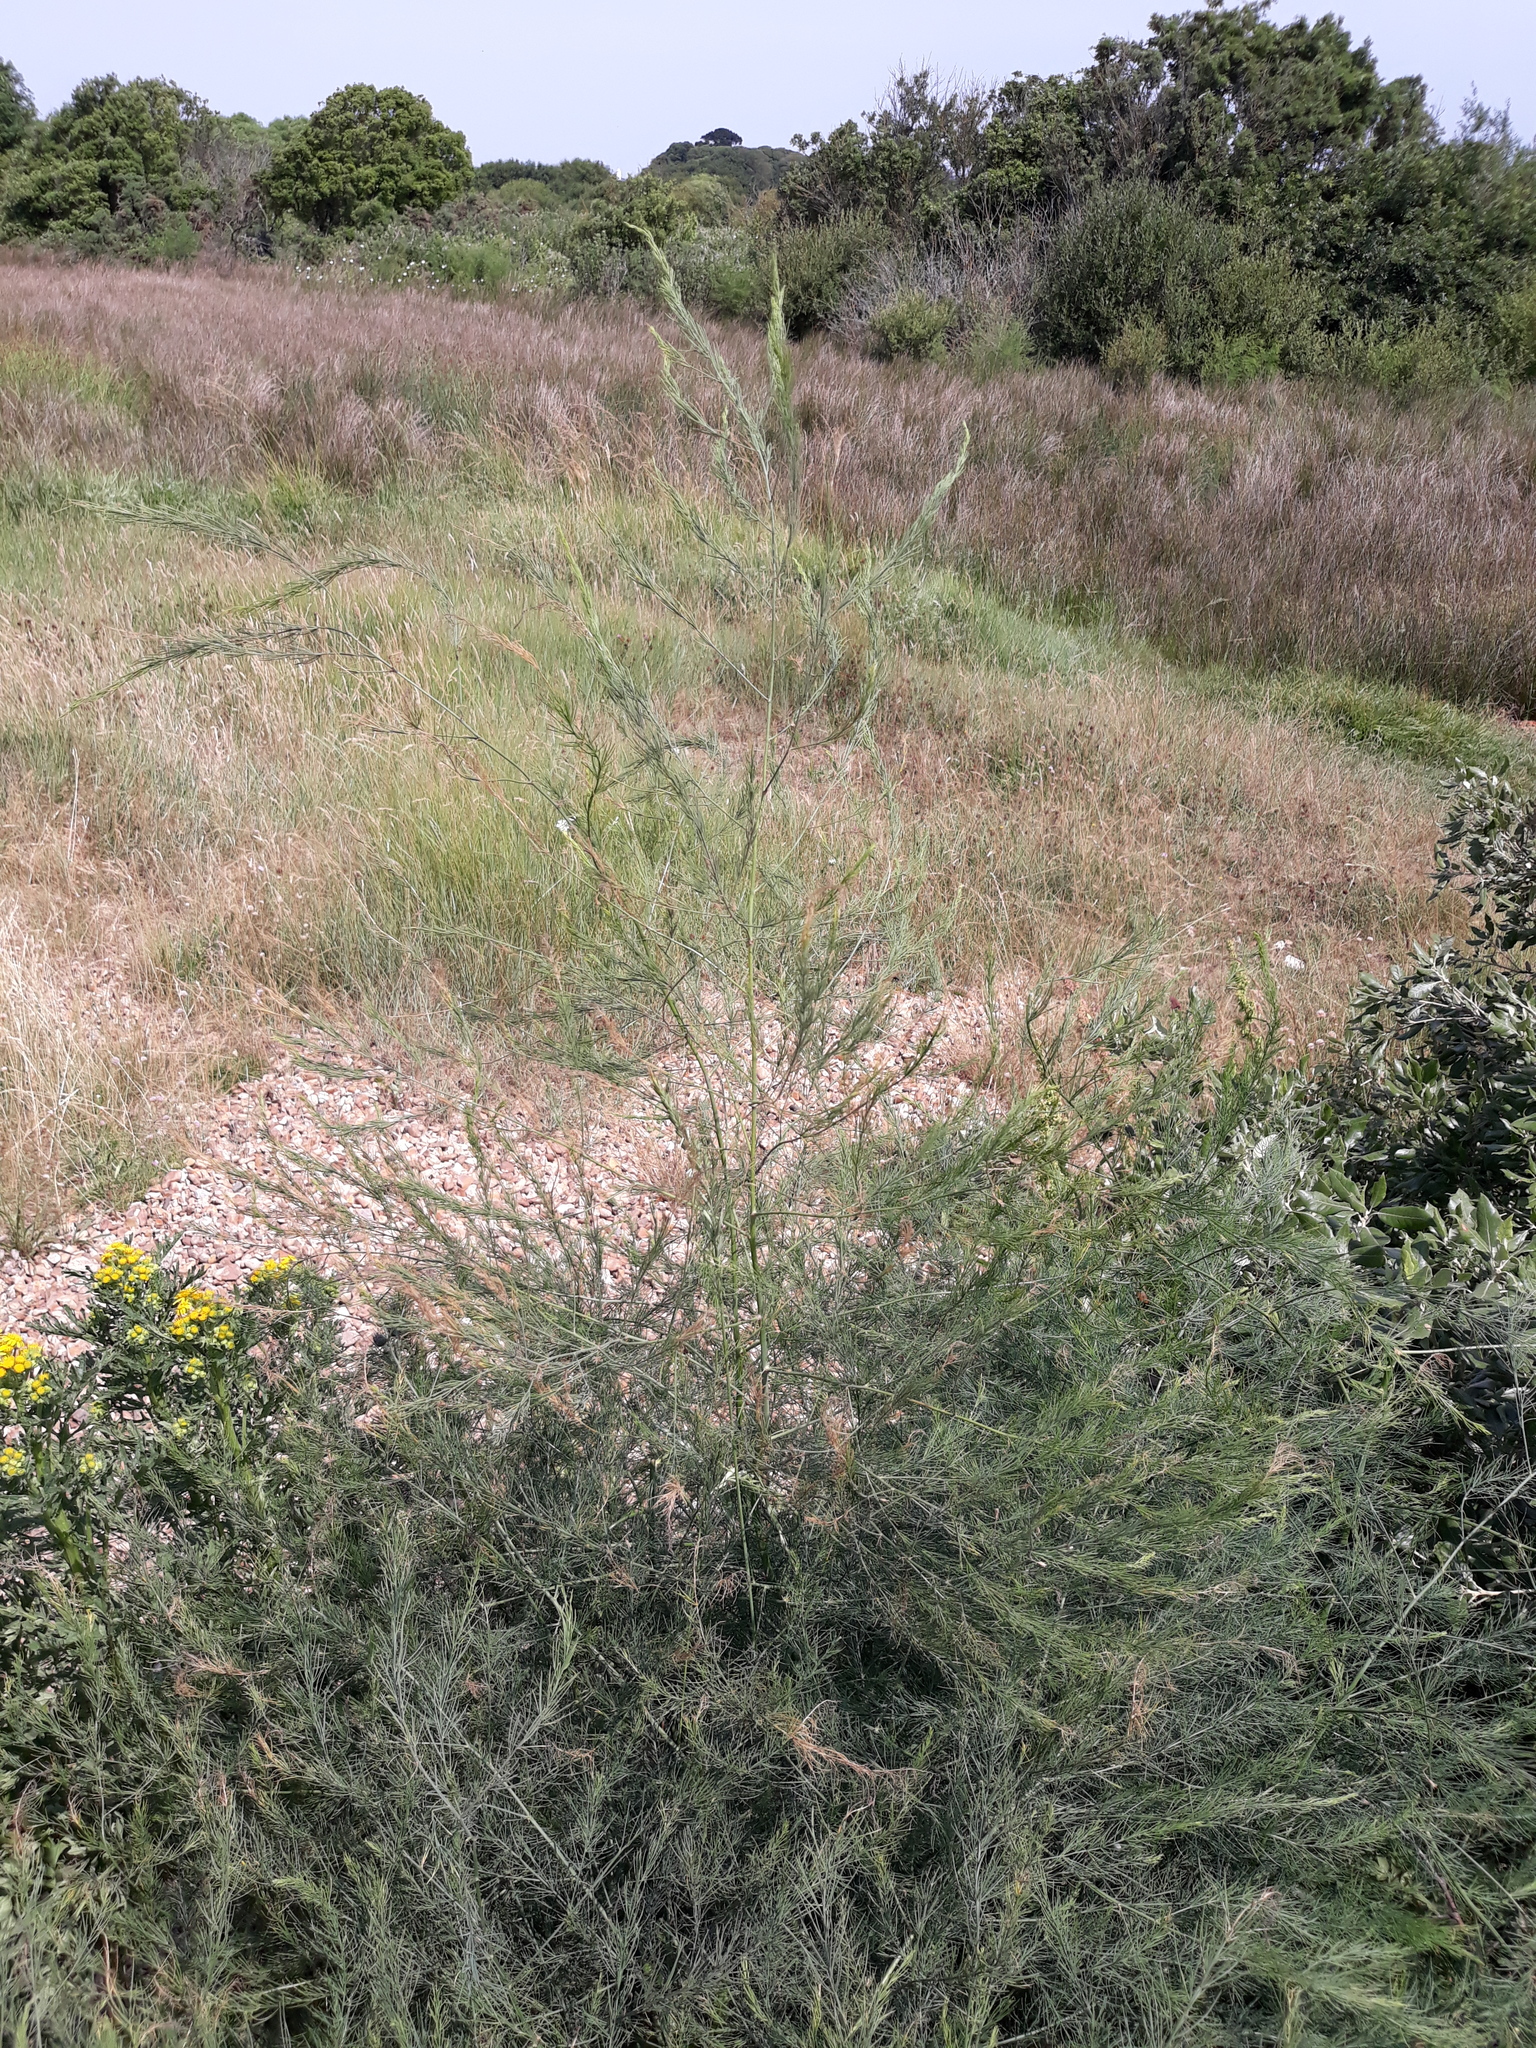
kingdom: Plantae
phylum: Tracheophyta
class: Liliopsida
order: Asparagales
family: Asparagaceae
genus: Asparagus
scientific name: Asparagus officinalis
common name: Garden asparagus
